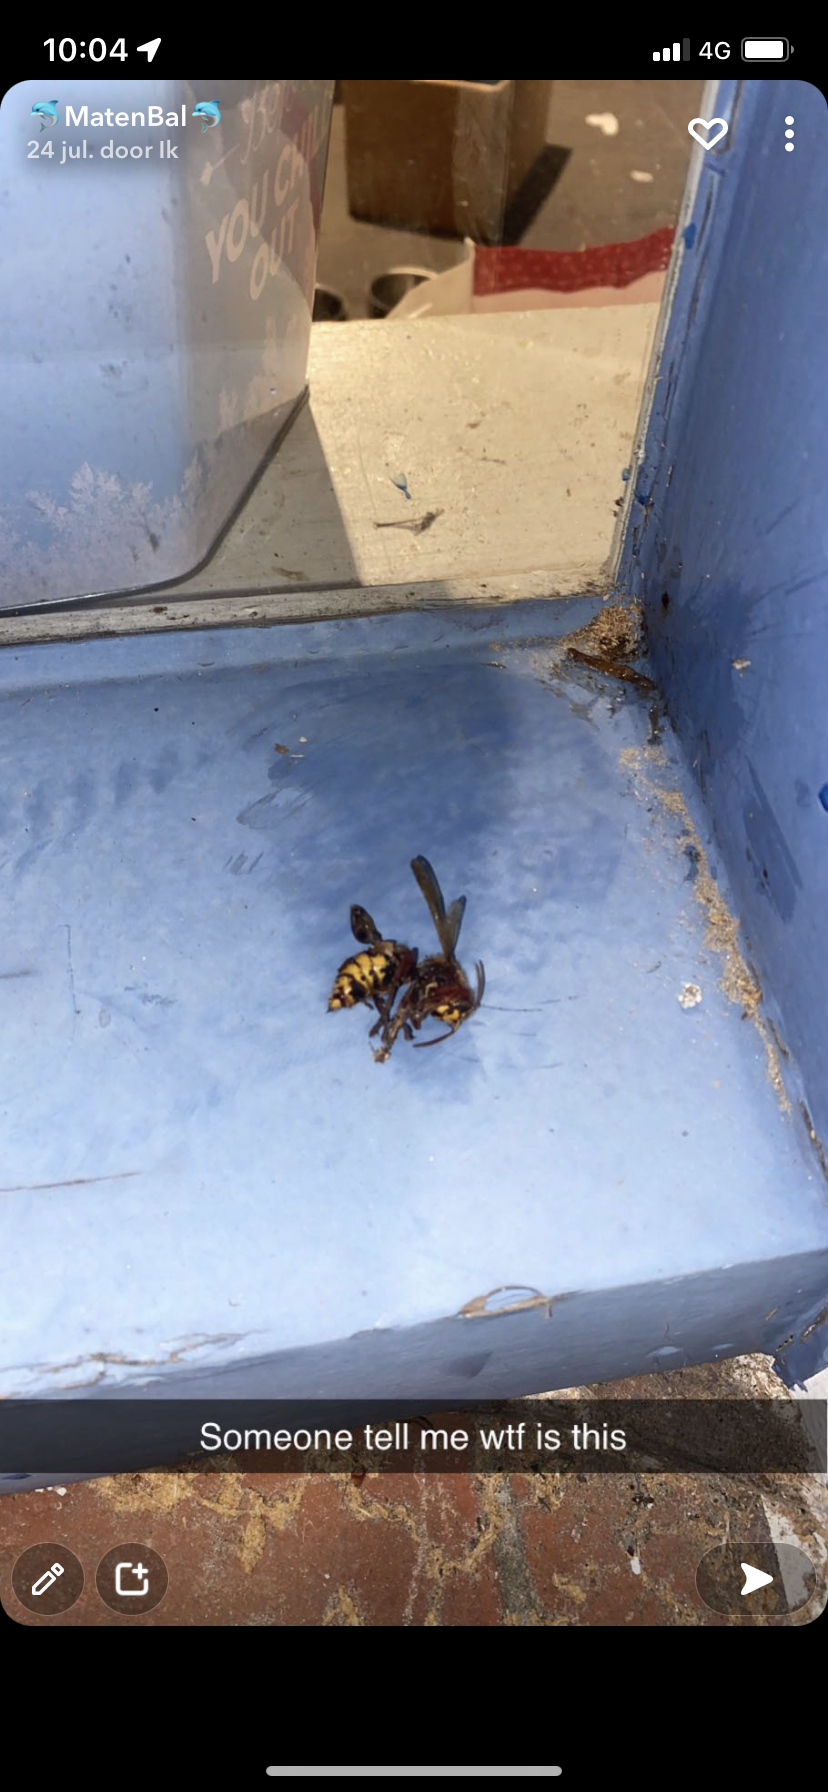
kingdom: Animalia
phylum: Arthropoda
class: Insecta
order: Hymenoptera
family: Vespidae
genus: Vespa
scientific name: Vespa crabro
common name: Hornet
